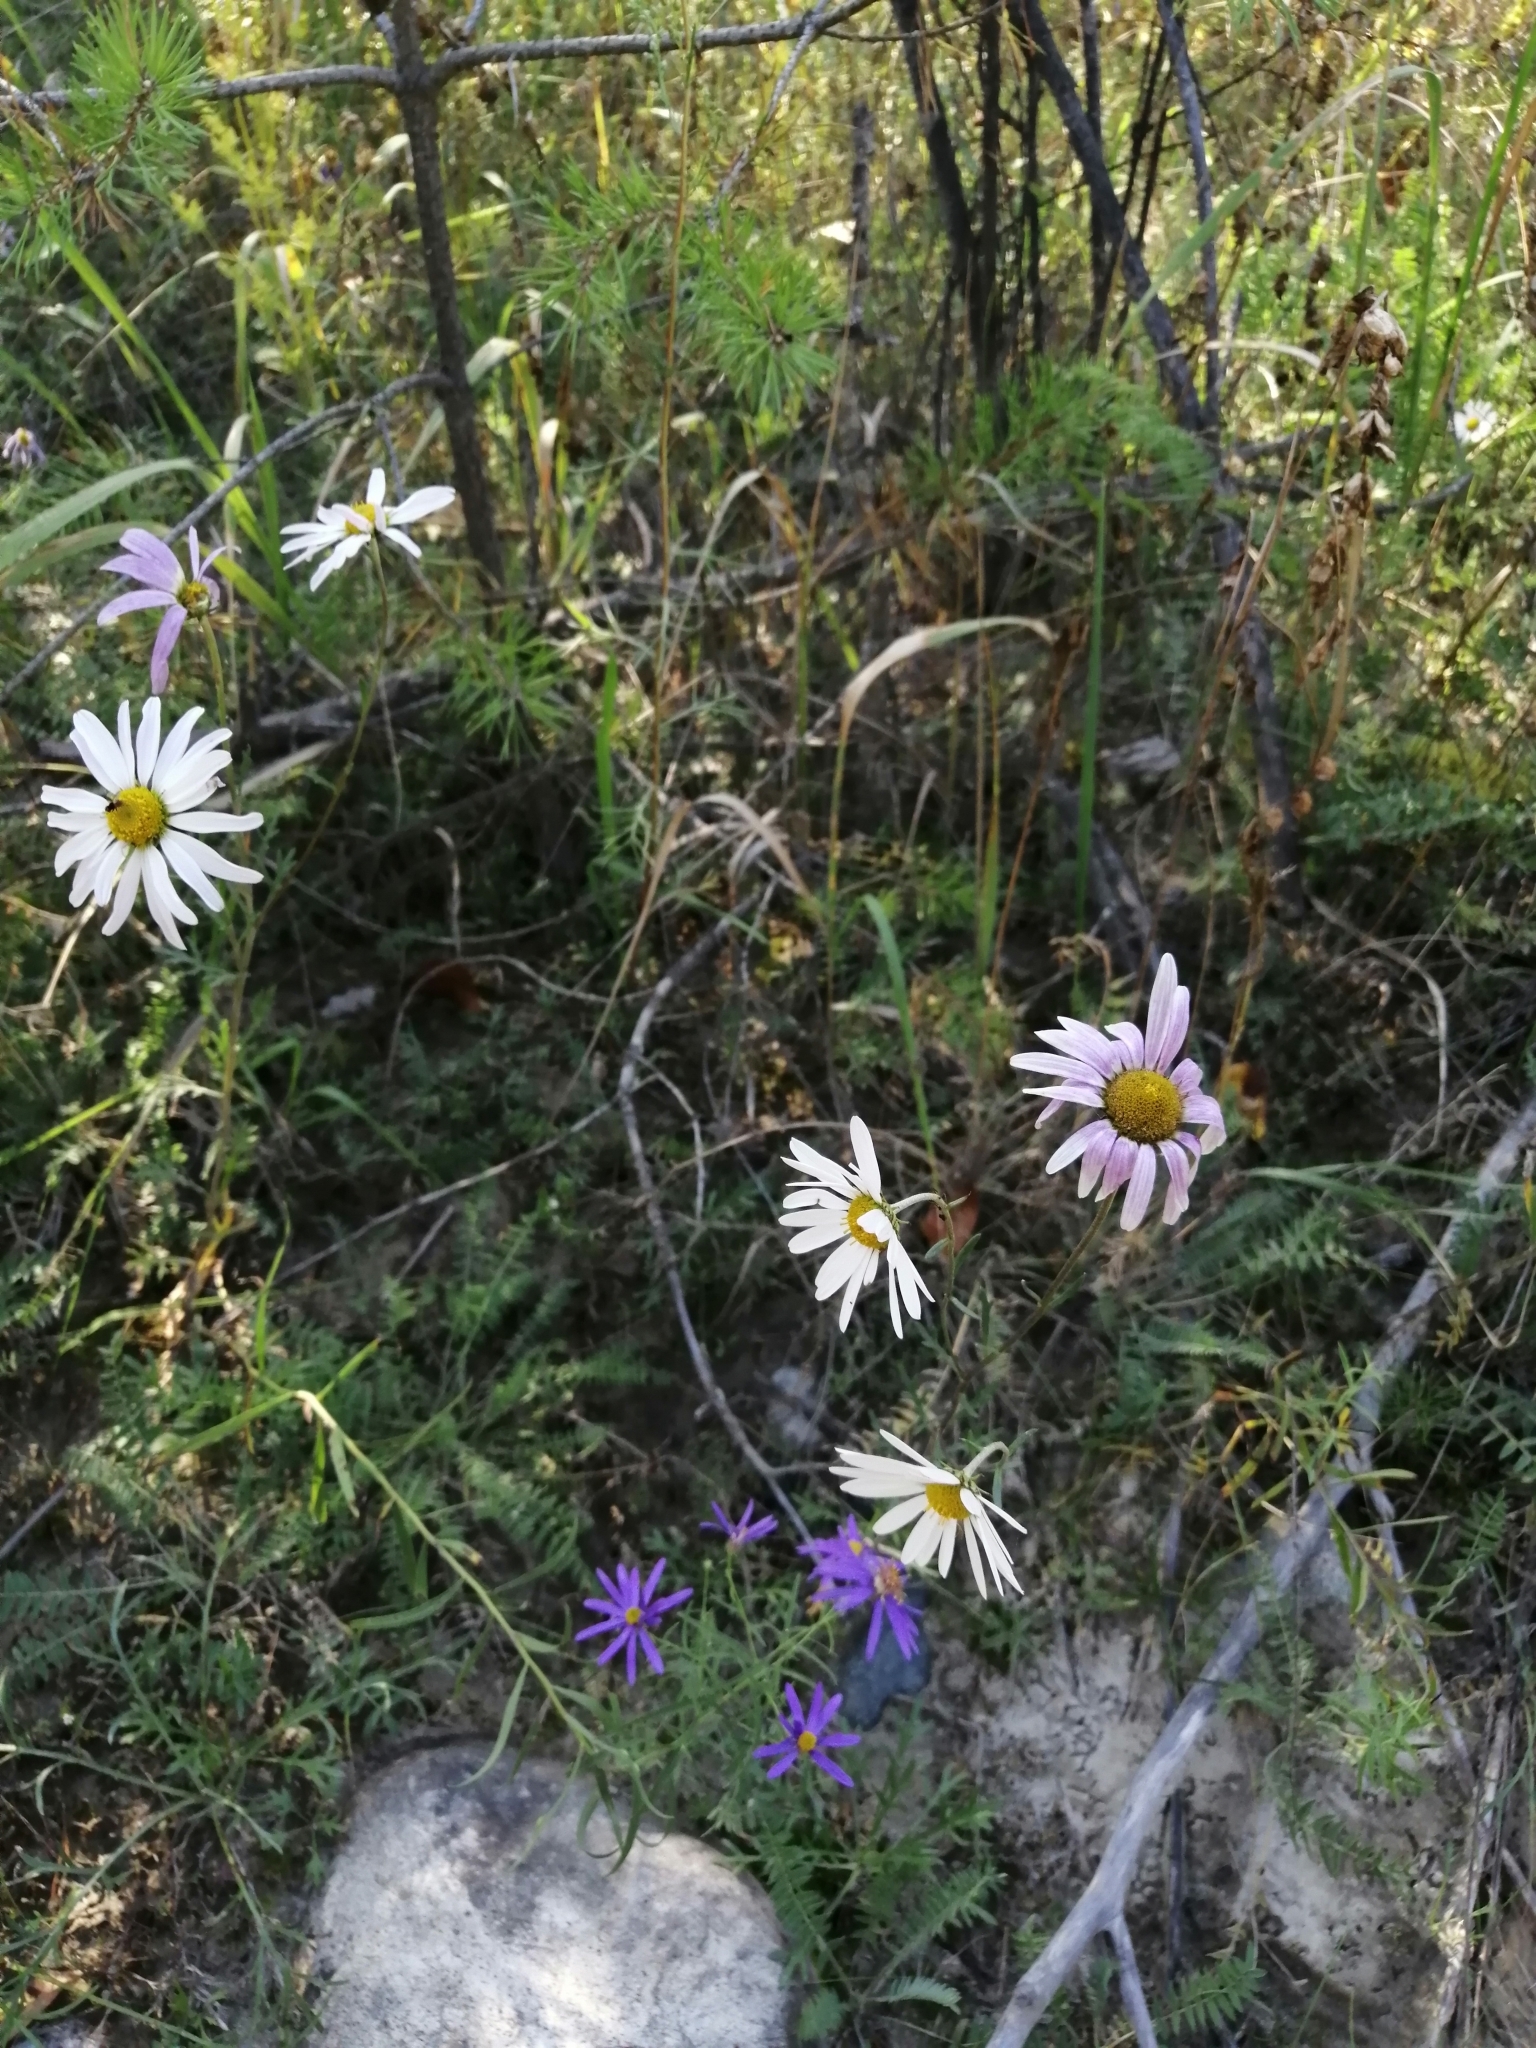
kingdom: Plantae
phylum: Tracheophyta
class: Magnoliopsida
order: Asterales
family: Asteraceae
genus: Chrysanthemum
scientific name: Chrysanthemum zawadzkii
